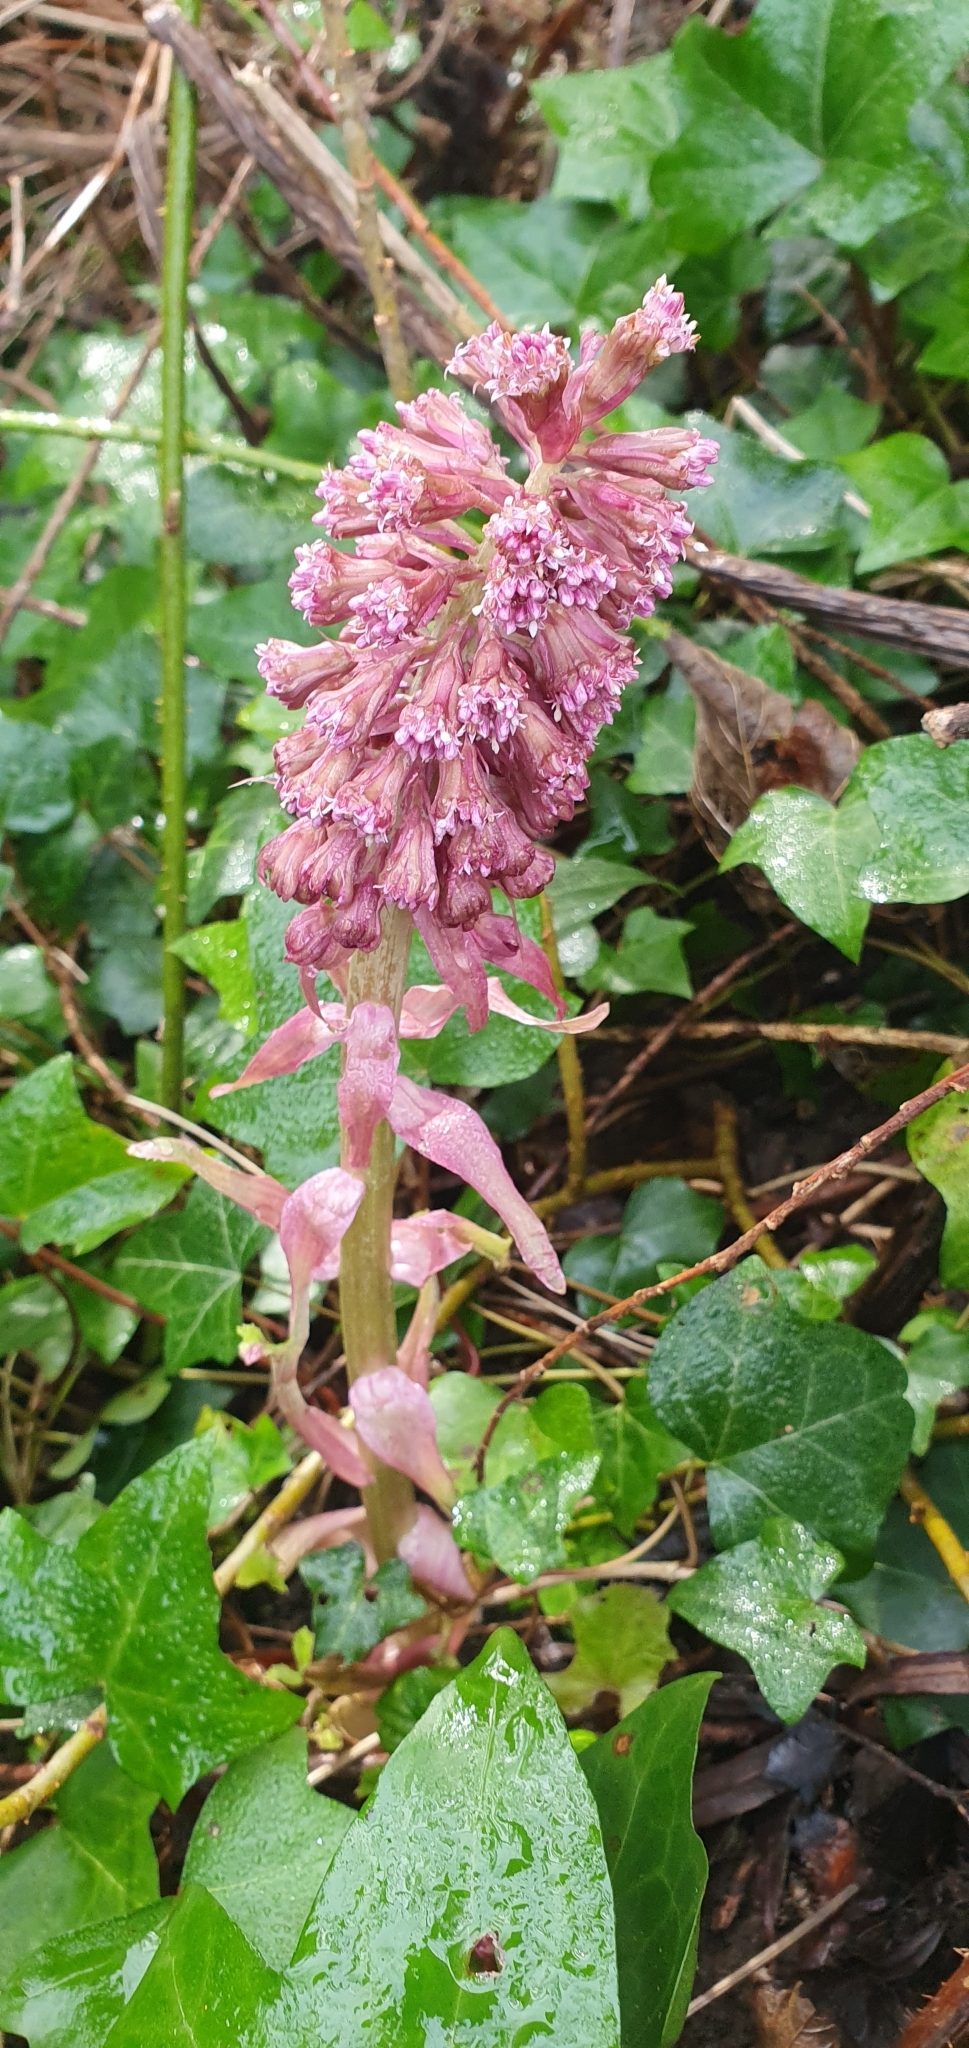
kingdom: Plantae
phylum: Tracheophyta
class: Magnoliopsida
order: Asterales
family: Asteraceae
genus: Petasites
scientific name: Petasites hybridus
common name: Butterbur
